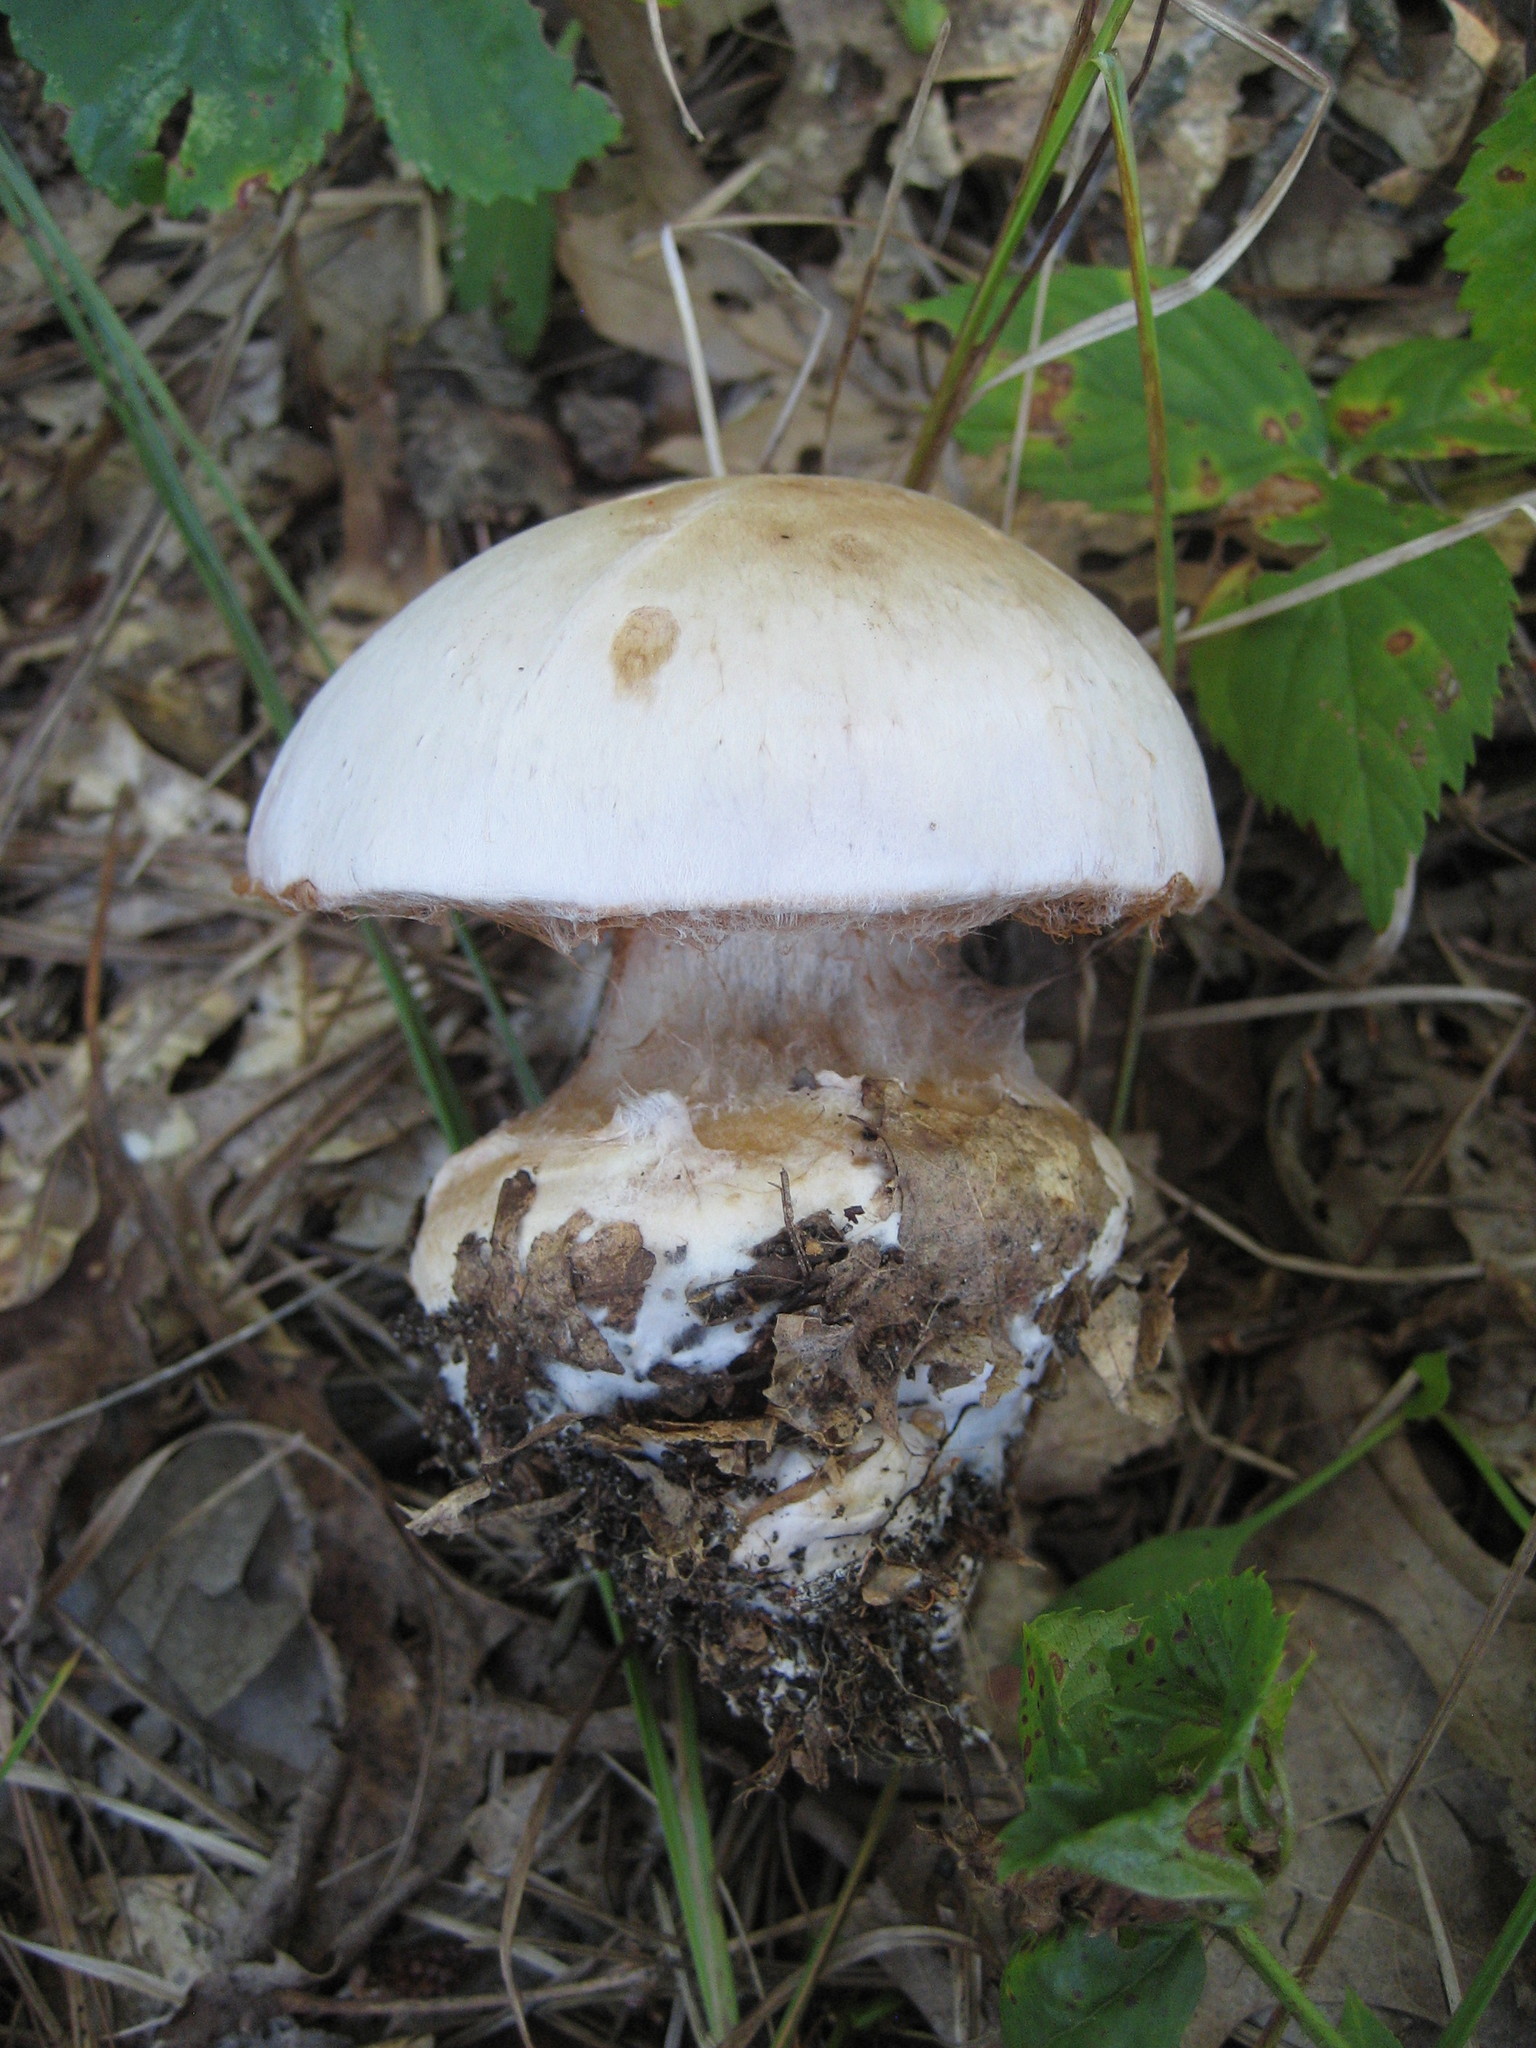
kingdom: Fungi
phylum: Basidiomycota
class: Agaricomycetes
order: Agaricales
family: Cortinariaceae
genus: Cortinarius
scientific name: Cortinarius
